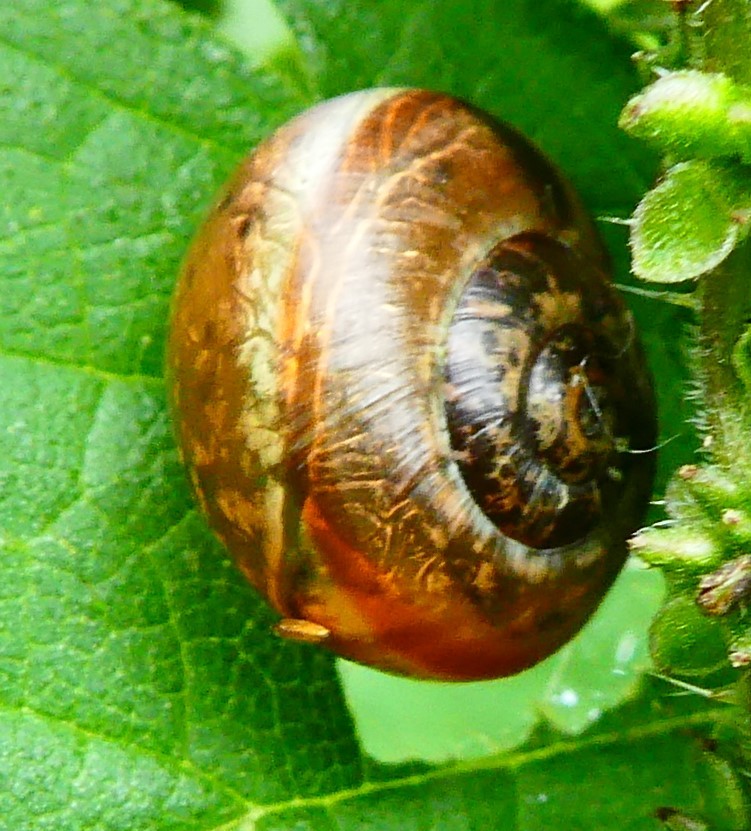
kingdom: Animalia
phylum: Mollusca
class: Gastropoda
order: Stylommatophora
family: Helicidae
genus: Arianta
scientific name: Arianta arbustorum
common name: Copse snail
